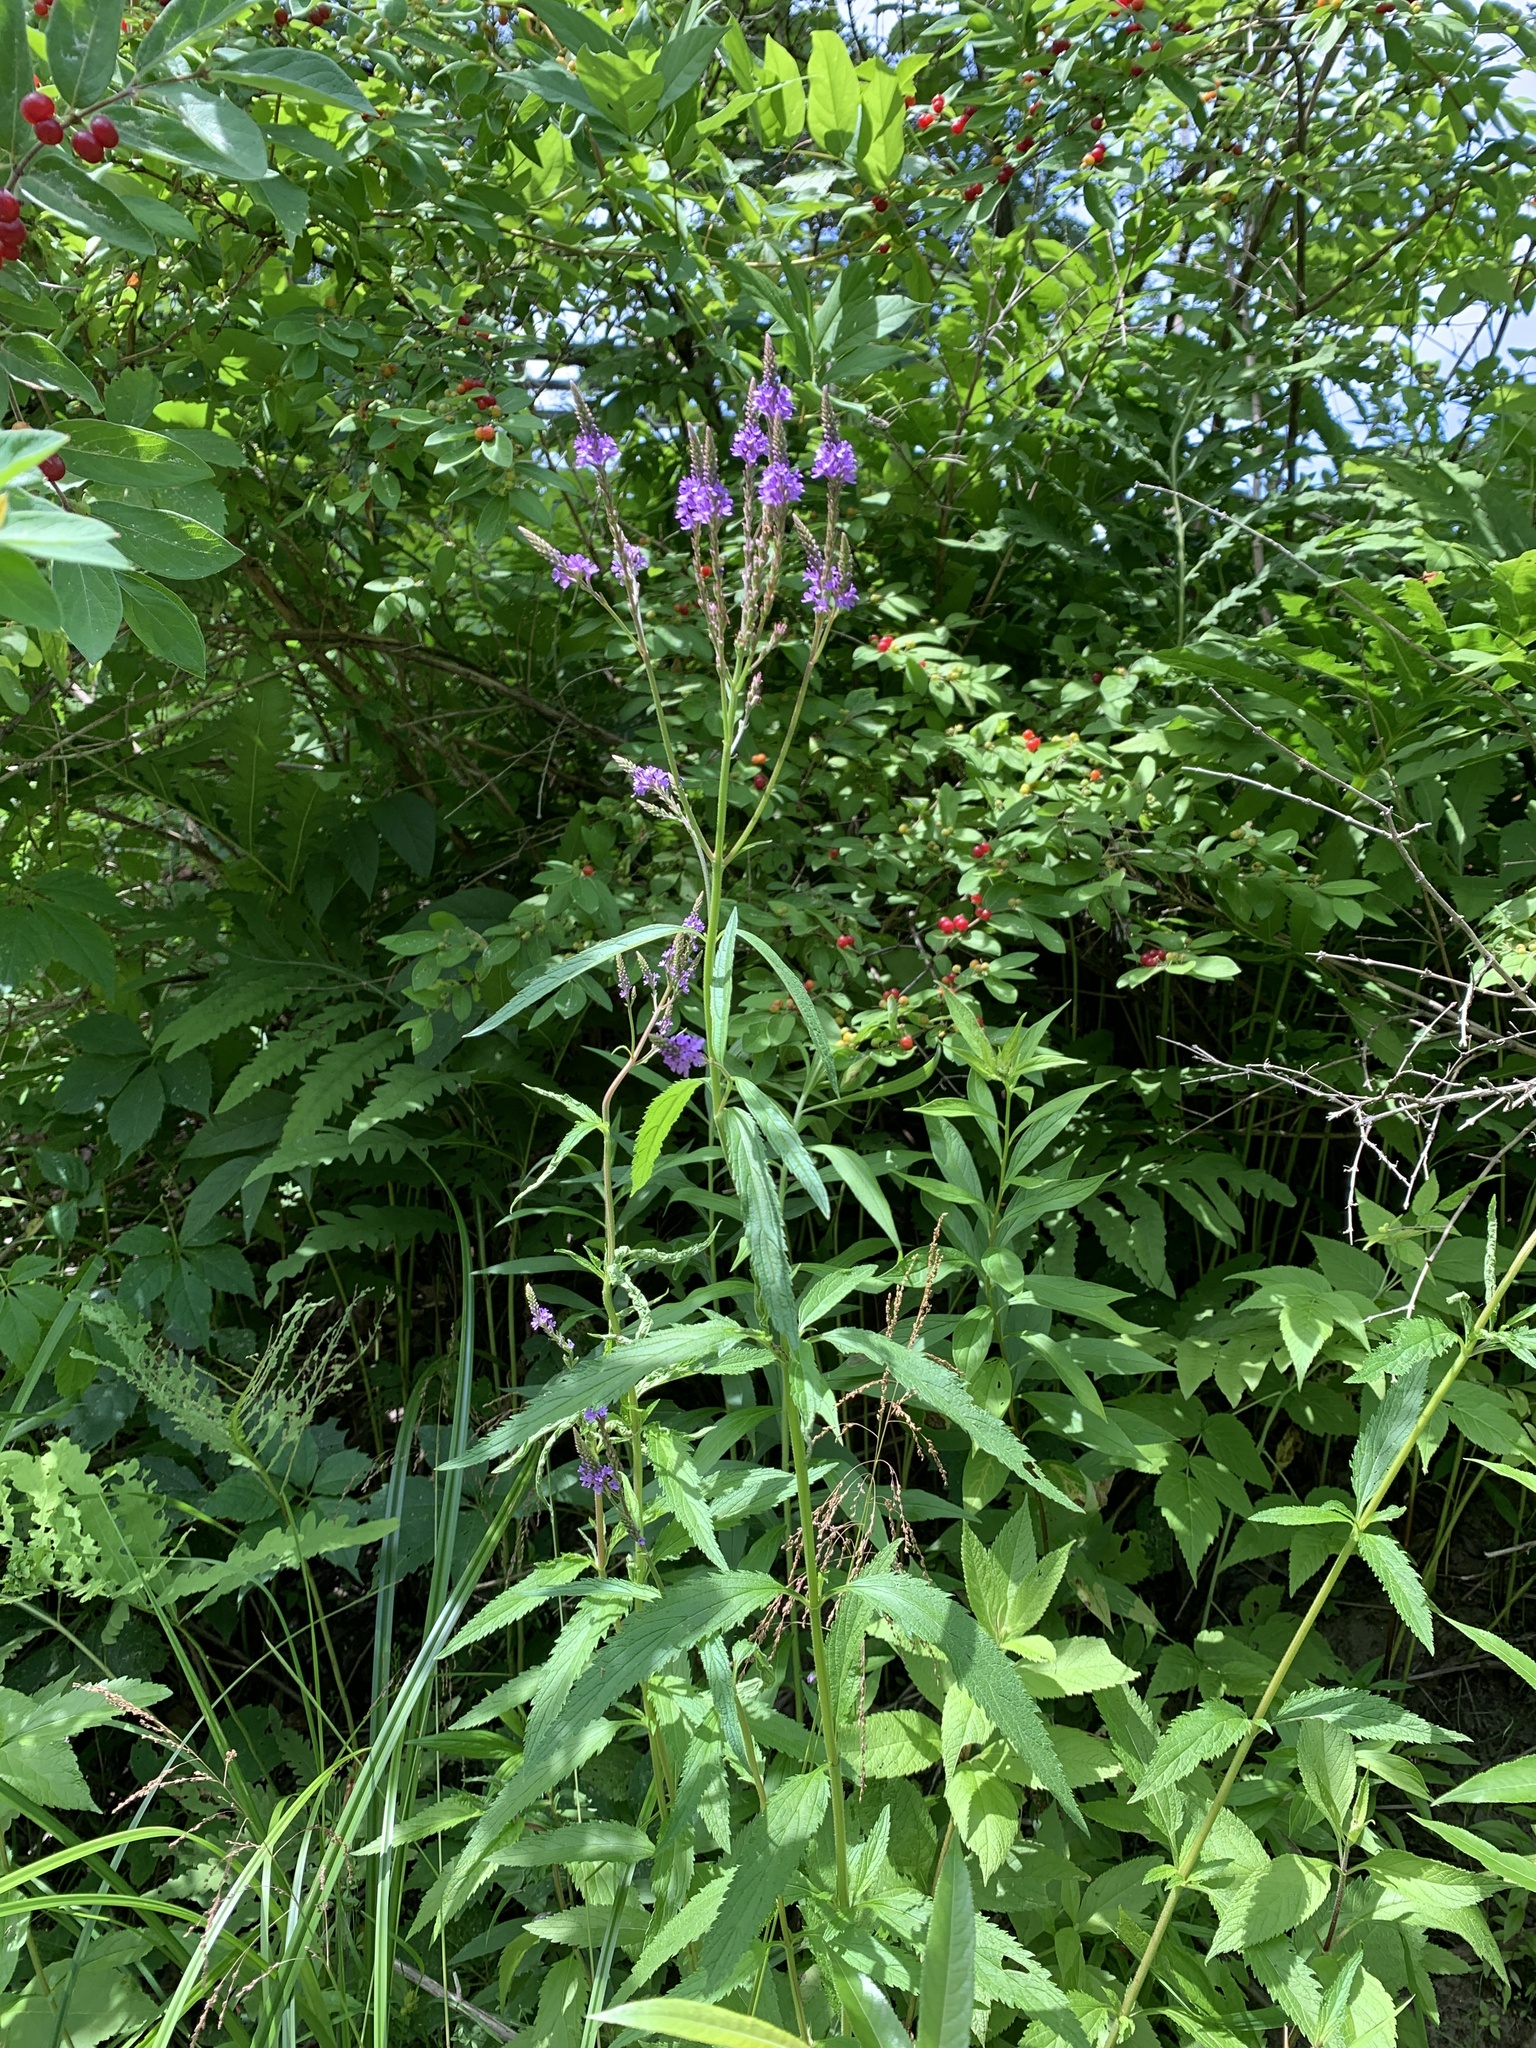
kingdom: Plantae
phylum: Tracheophyta
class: Magnoliopsida
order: Lamiales
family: Verbenaceae
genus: Verbena
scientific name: Verbena hastata
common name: American blue vervain
